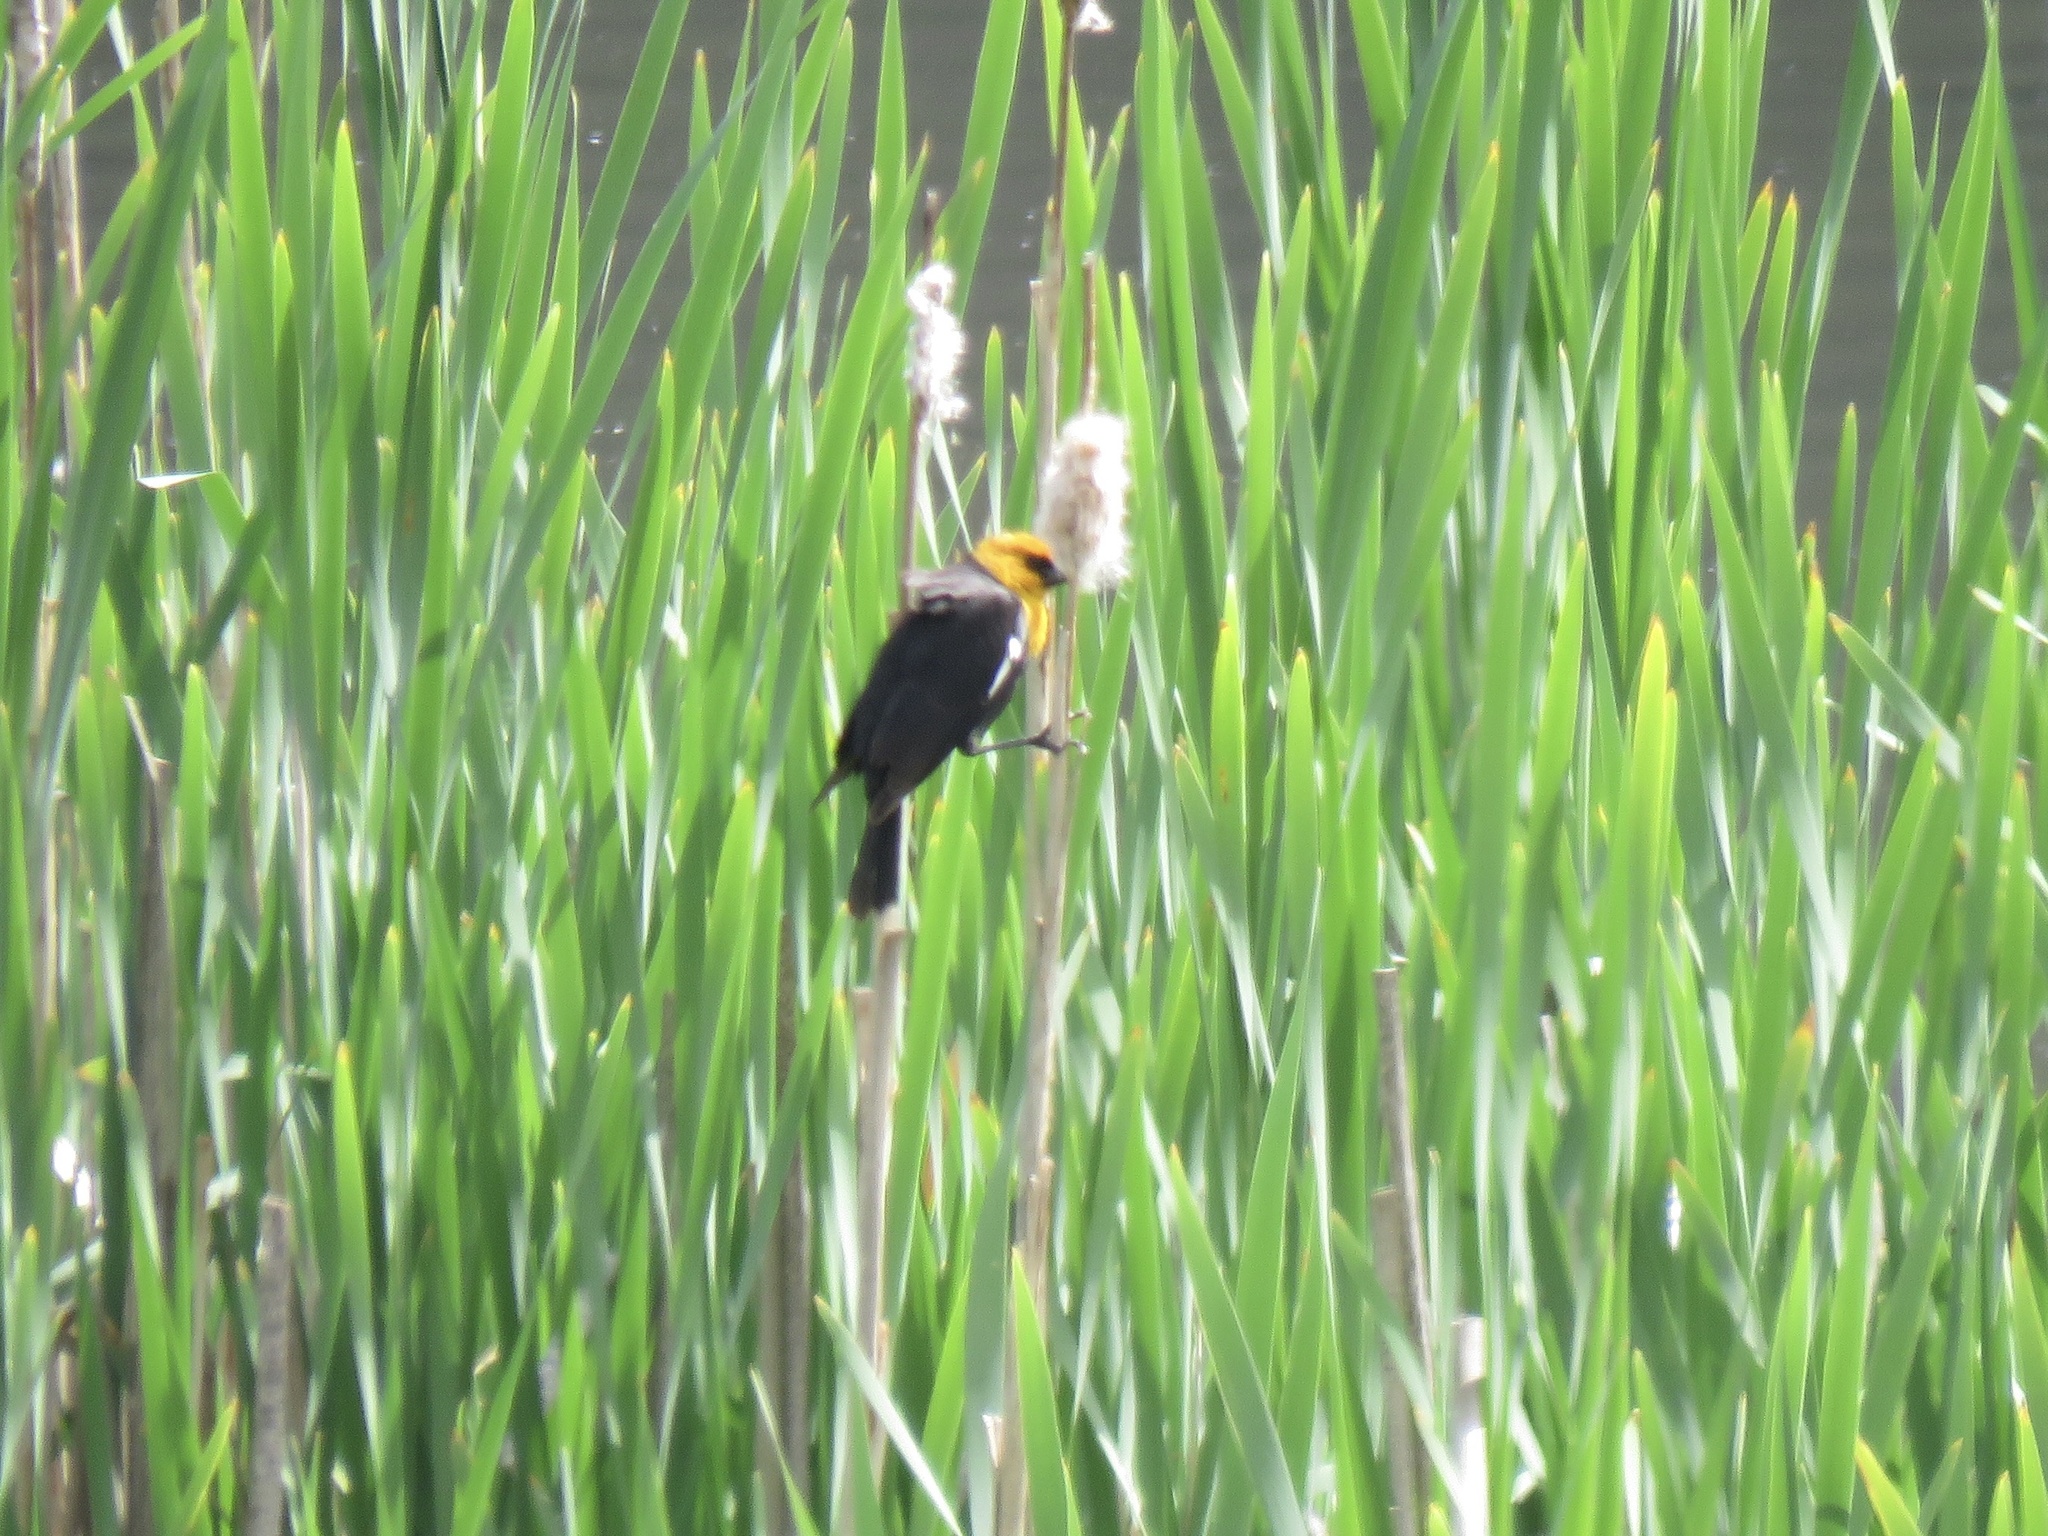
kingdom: Animalia
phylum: Chordata
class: Aves
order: Passeriformes
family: Icteridae
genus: Xanthocephalus
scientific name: Xanthocephalus xanthocephalus
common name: Yellow-headed blackbird
